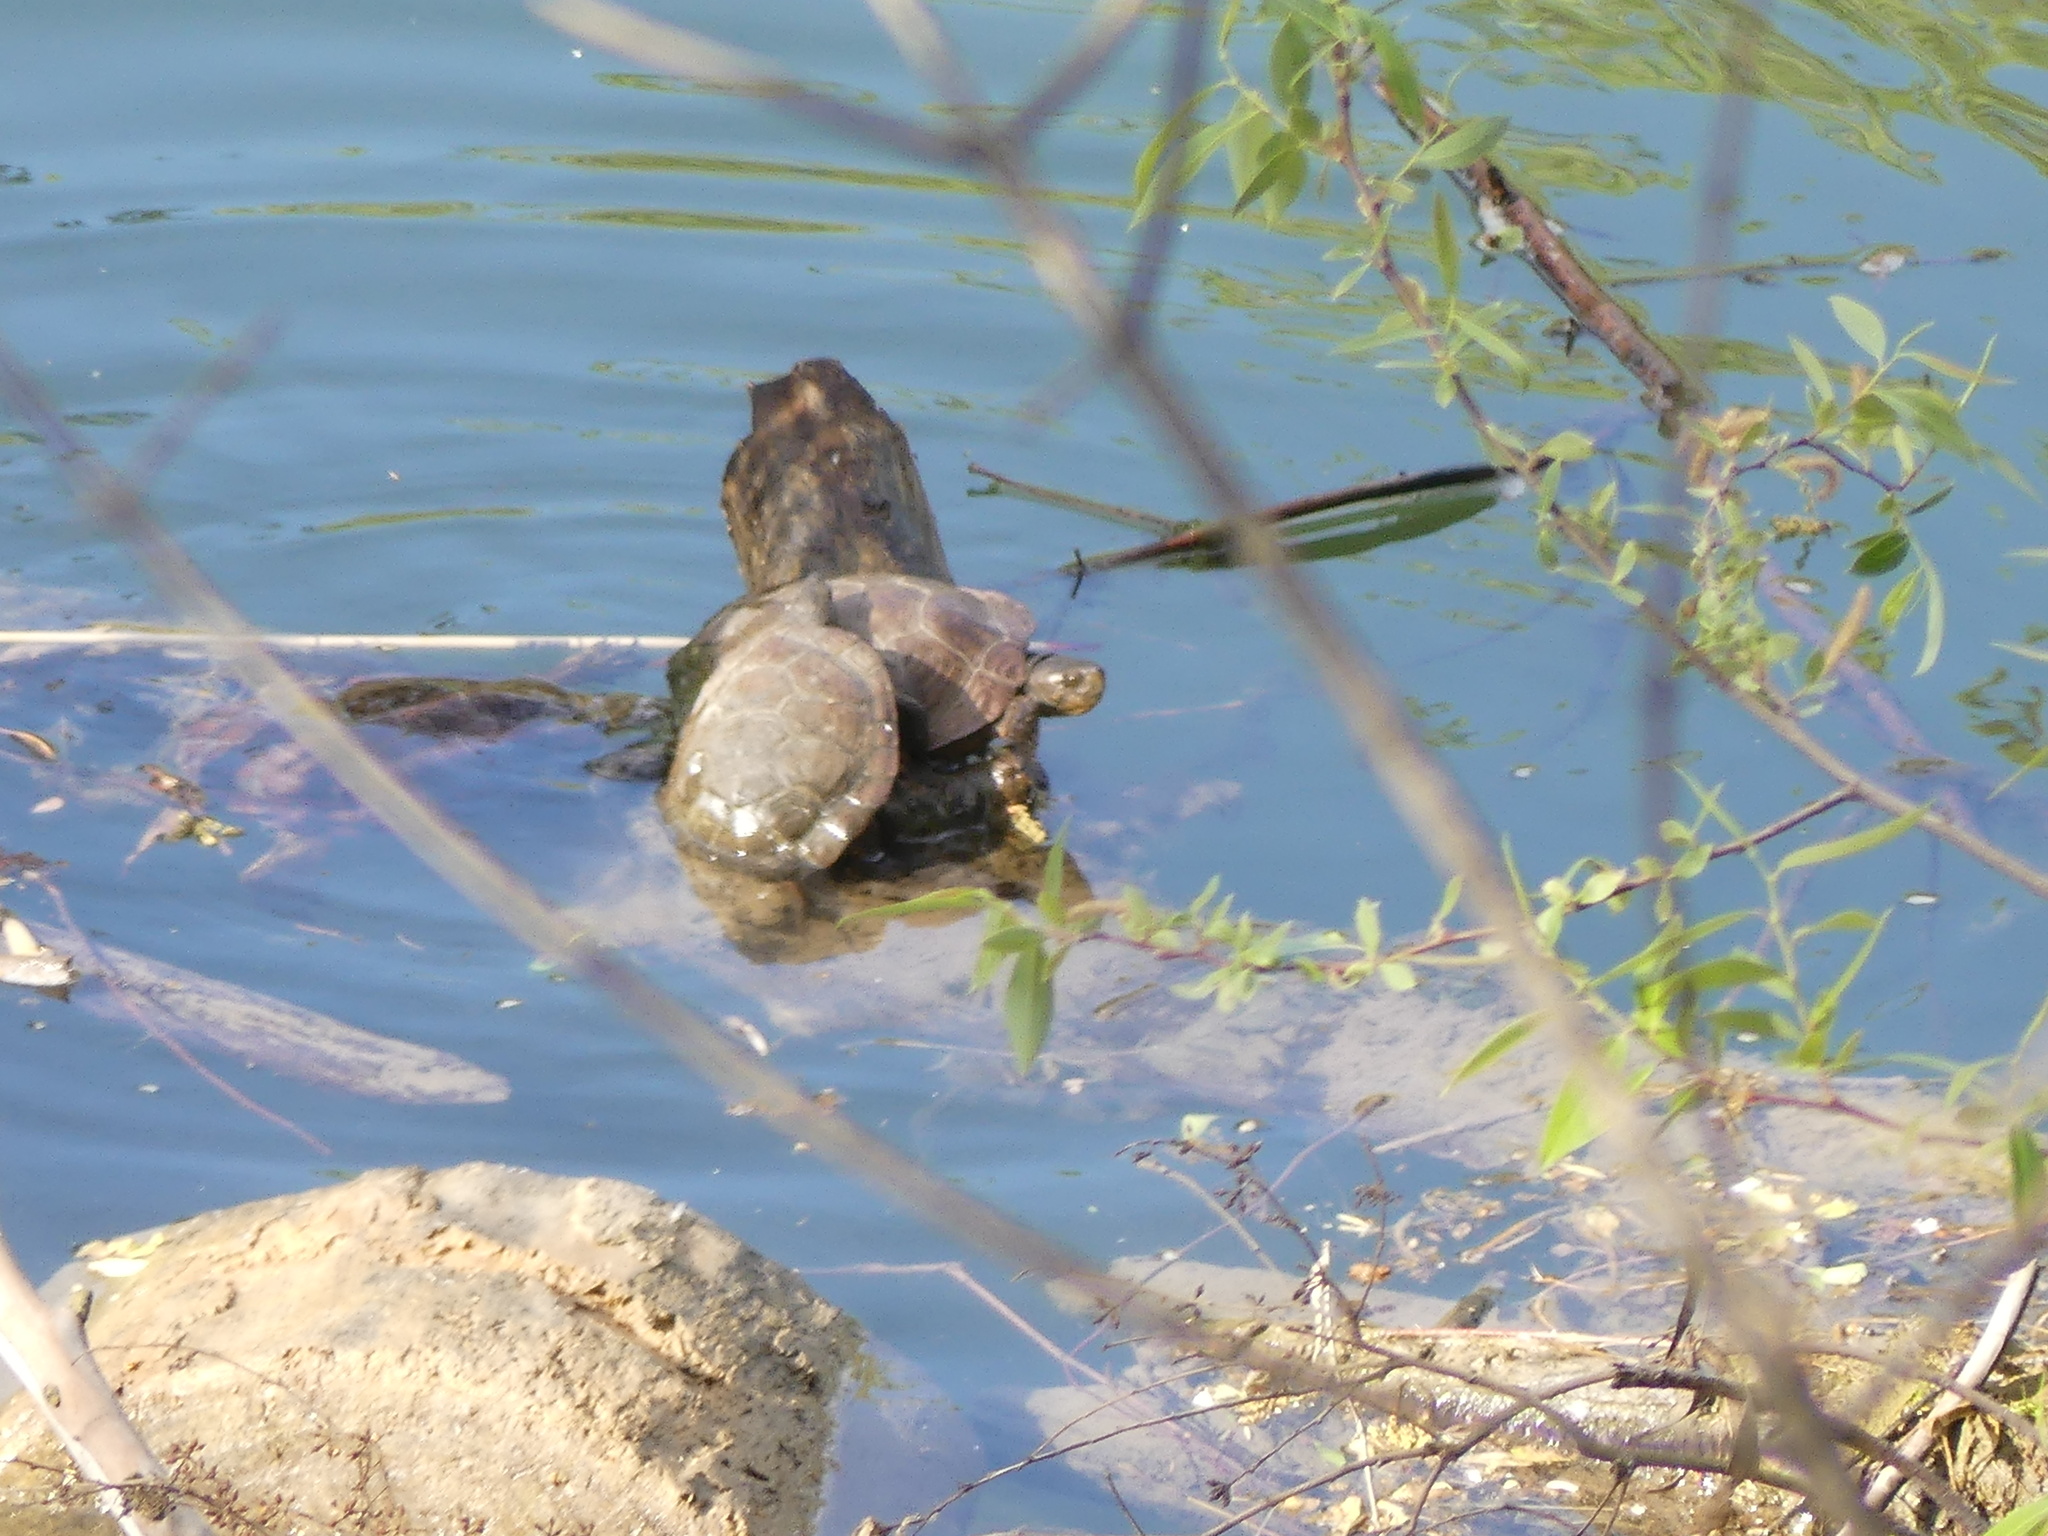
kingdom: Animalia
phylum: Chordata
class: Testudines
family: Emydidae
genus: Actinemys
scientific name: Actinemys marmorata
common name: Western pond turtle
